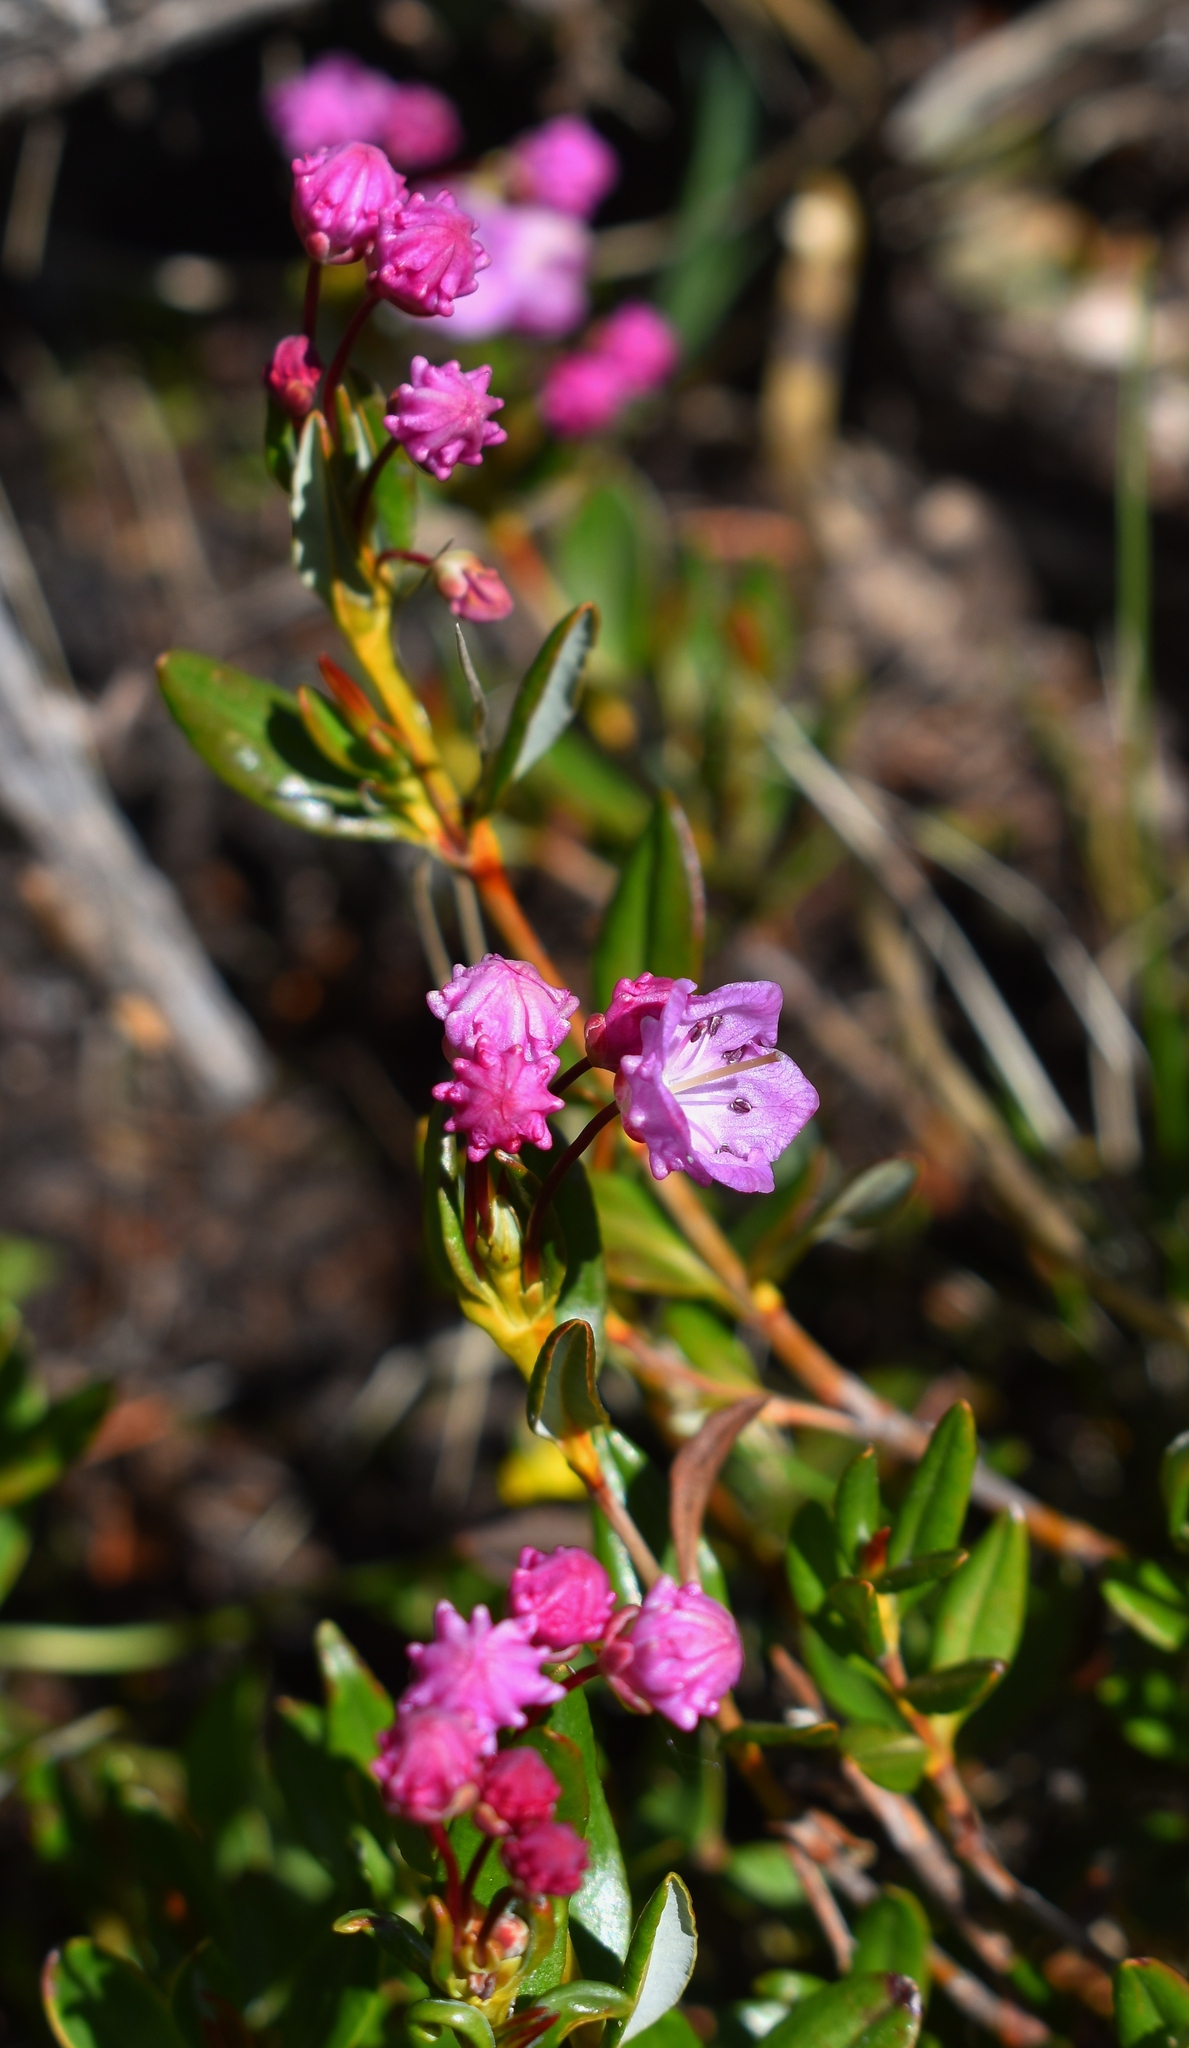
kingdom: Plantae
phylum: Tracheophyta
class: Magnoliopsida
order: Ericales
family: Ericaceae
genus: Kalmia
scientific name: Kalmia microphylla
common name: Alpine bog laurel
